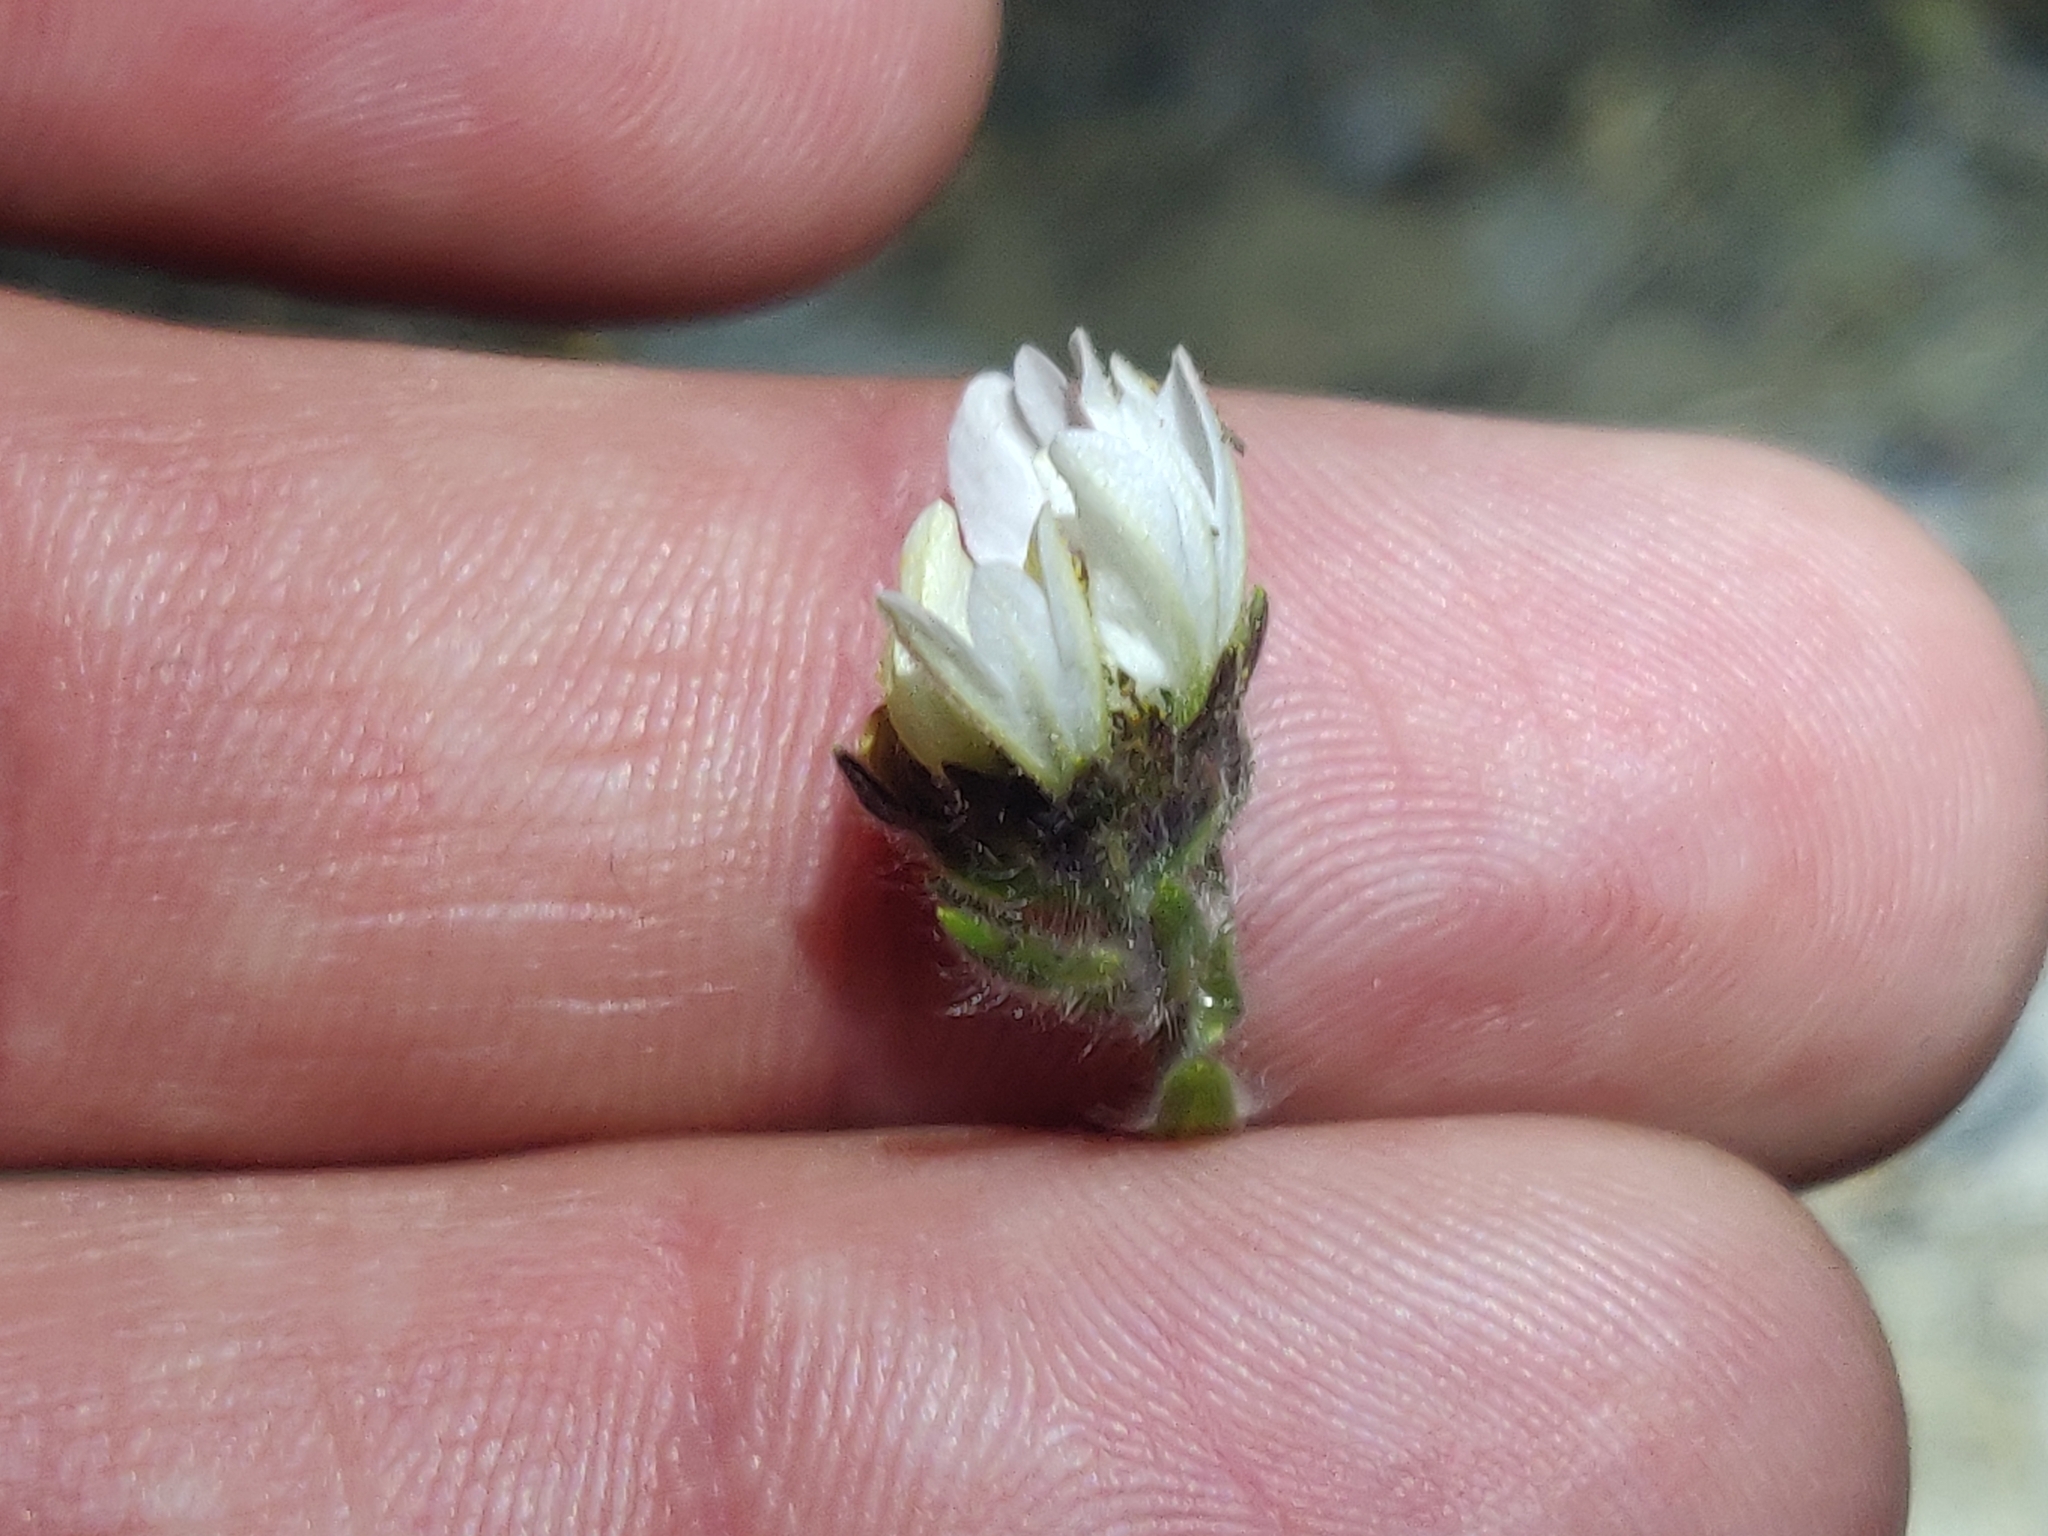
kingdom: Plantae
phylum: Tracheophyta
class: Magnoliopsida
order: Asterales
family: Asteraceae
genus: Hemizonia
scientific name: Hemizonia congesta
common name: Hayfield tarweed
